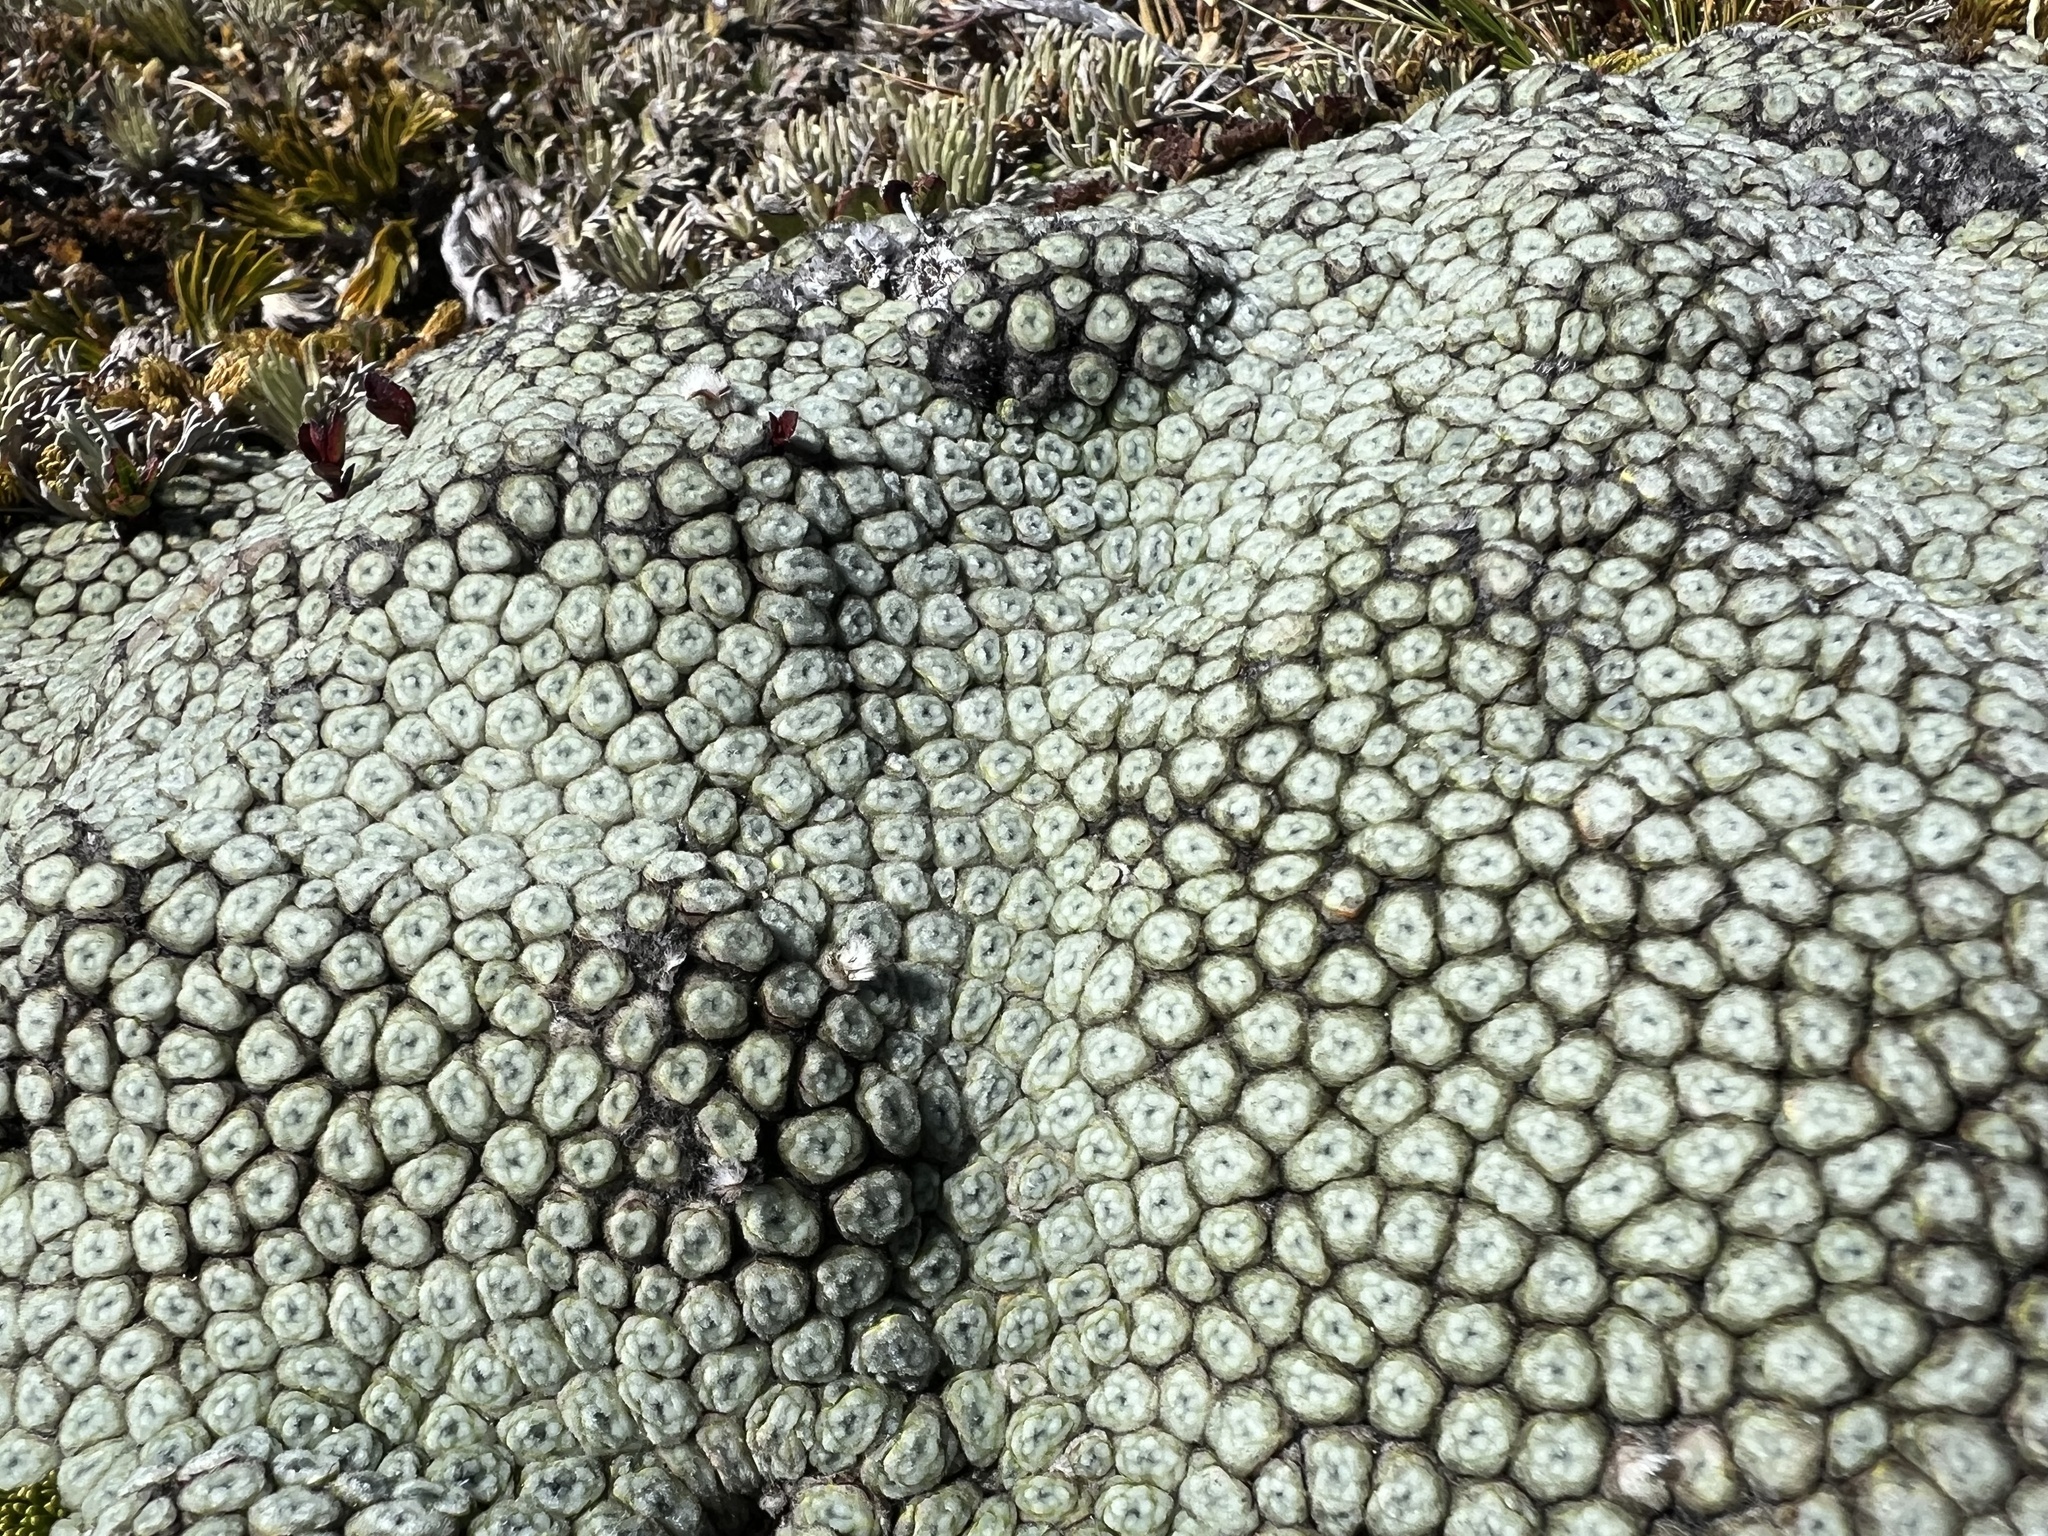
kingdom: Plantae
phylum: Tracheophyta
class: Magnoliopsida
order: Asterales
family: Asteraceae
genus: Raoulia
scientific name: Raoulia buchananii
